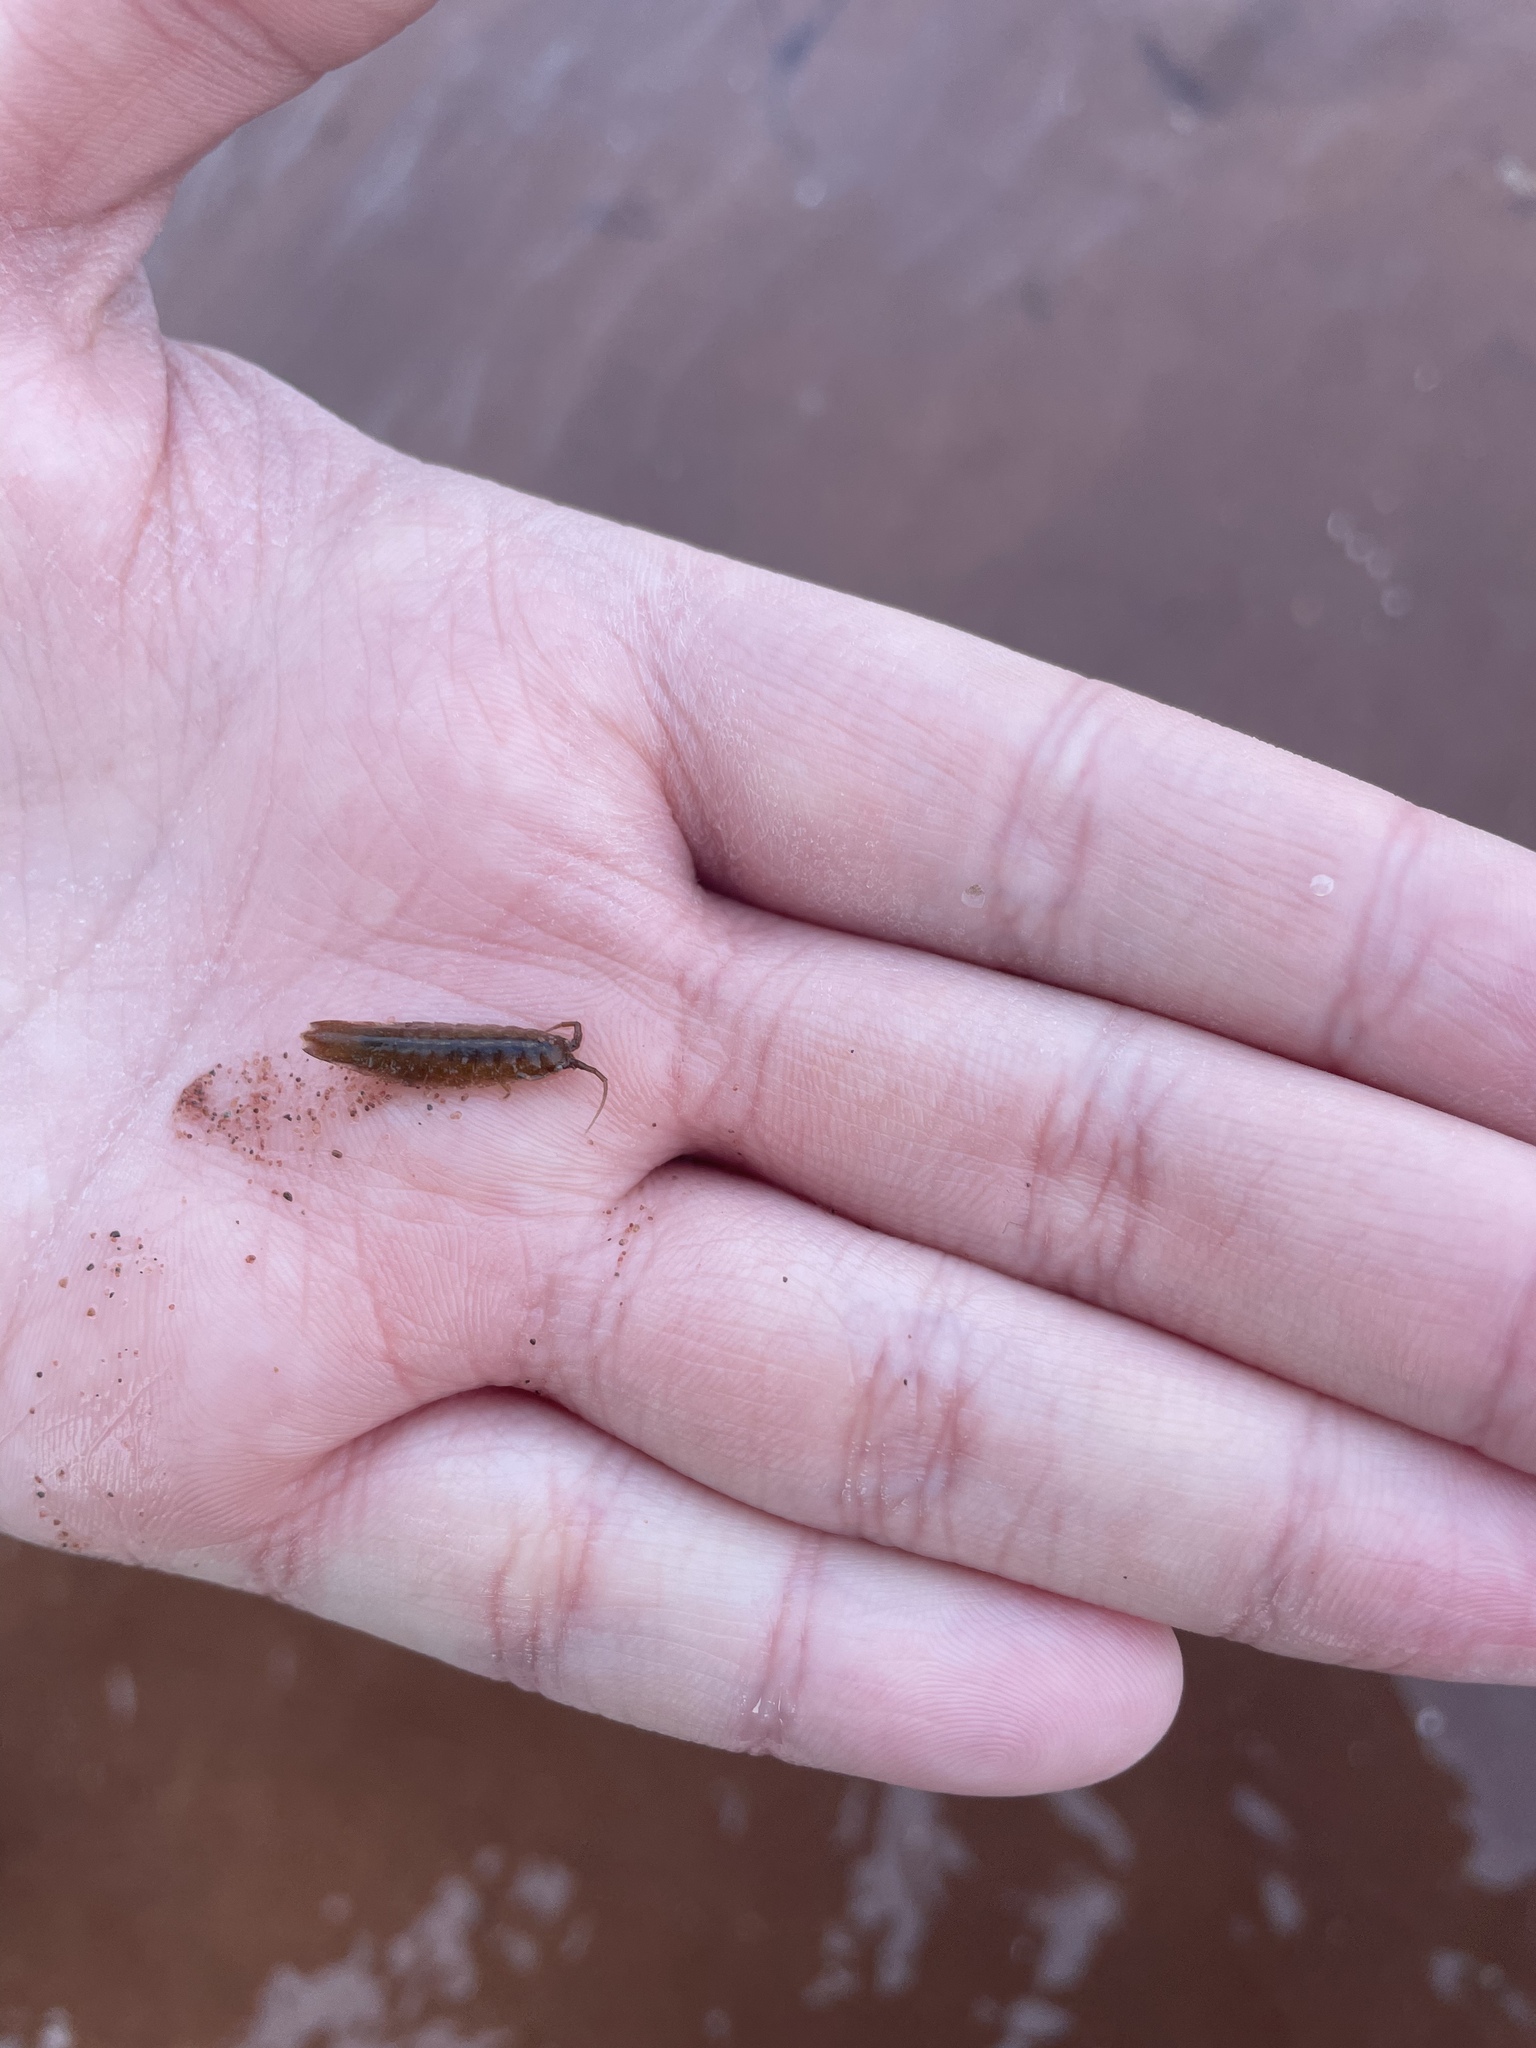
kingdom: Animalia
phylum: Arthropoda
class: Malacostraca
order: Isopoda
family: Idoteidae
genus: Idotea
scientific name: Idotea balthica
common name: Baltic isopod
